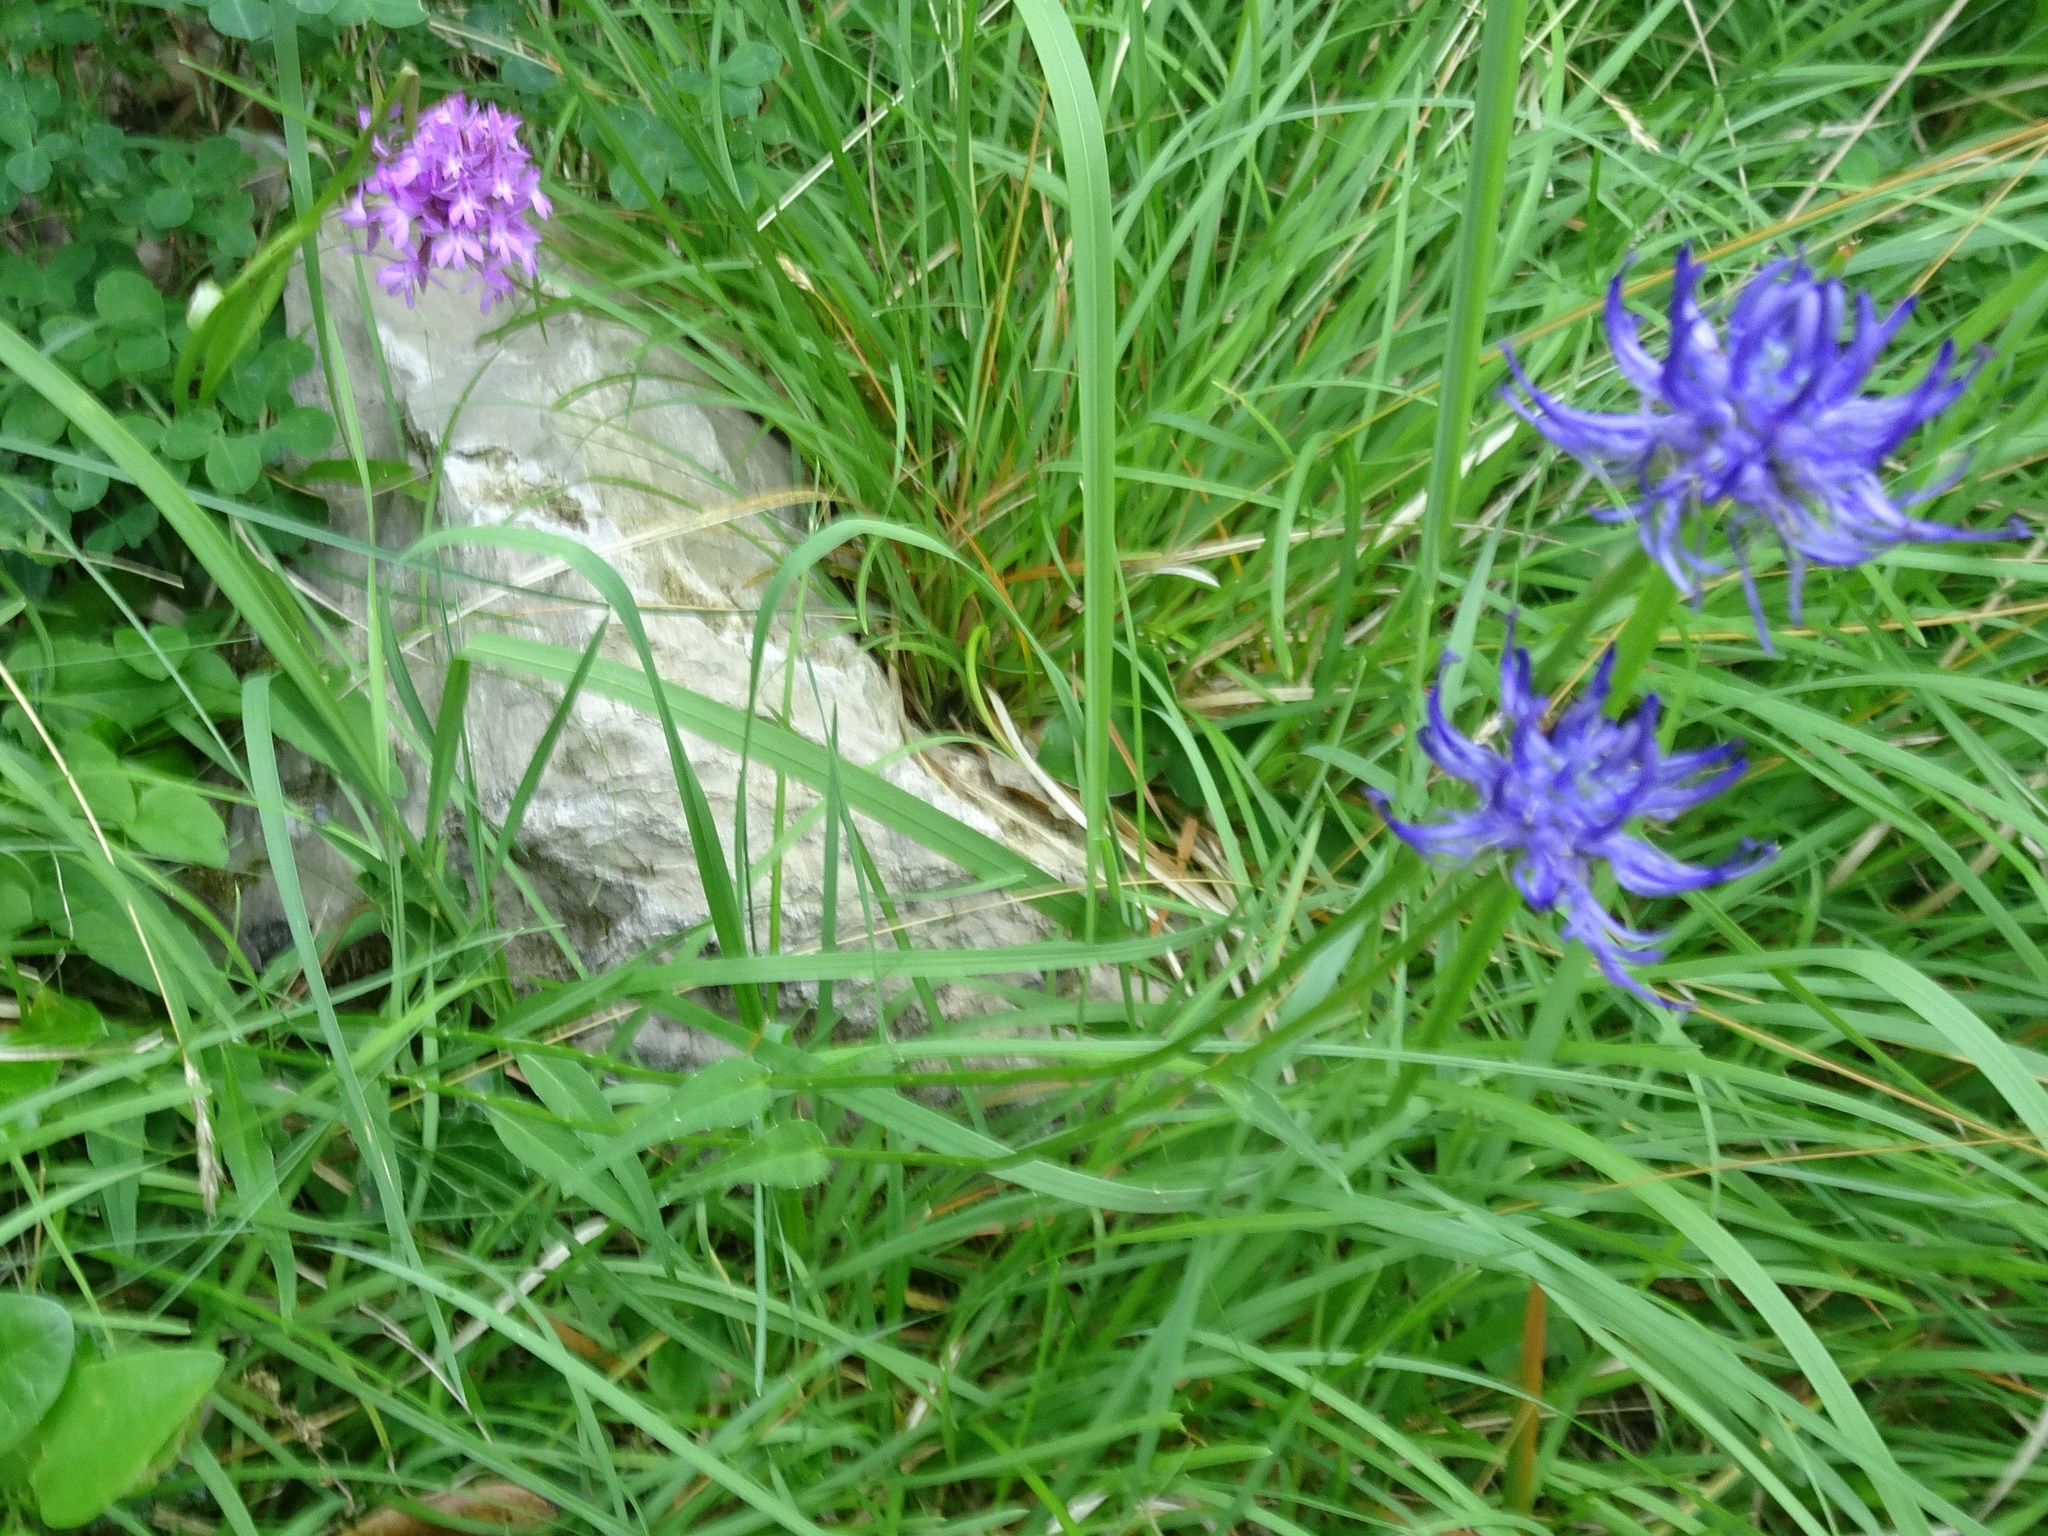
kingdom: Plantae
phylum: Tracheophyta
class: Magnoliopsida
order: Asterales
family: Campanulaceae
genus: Phyteuma
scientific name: Phyteuma orbiculare
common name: Round-headed rampion
